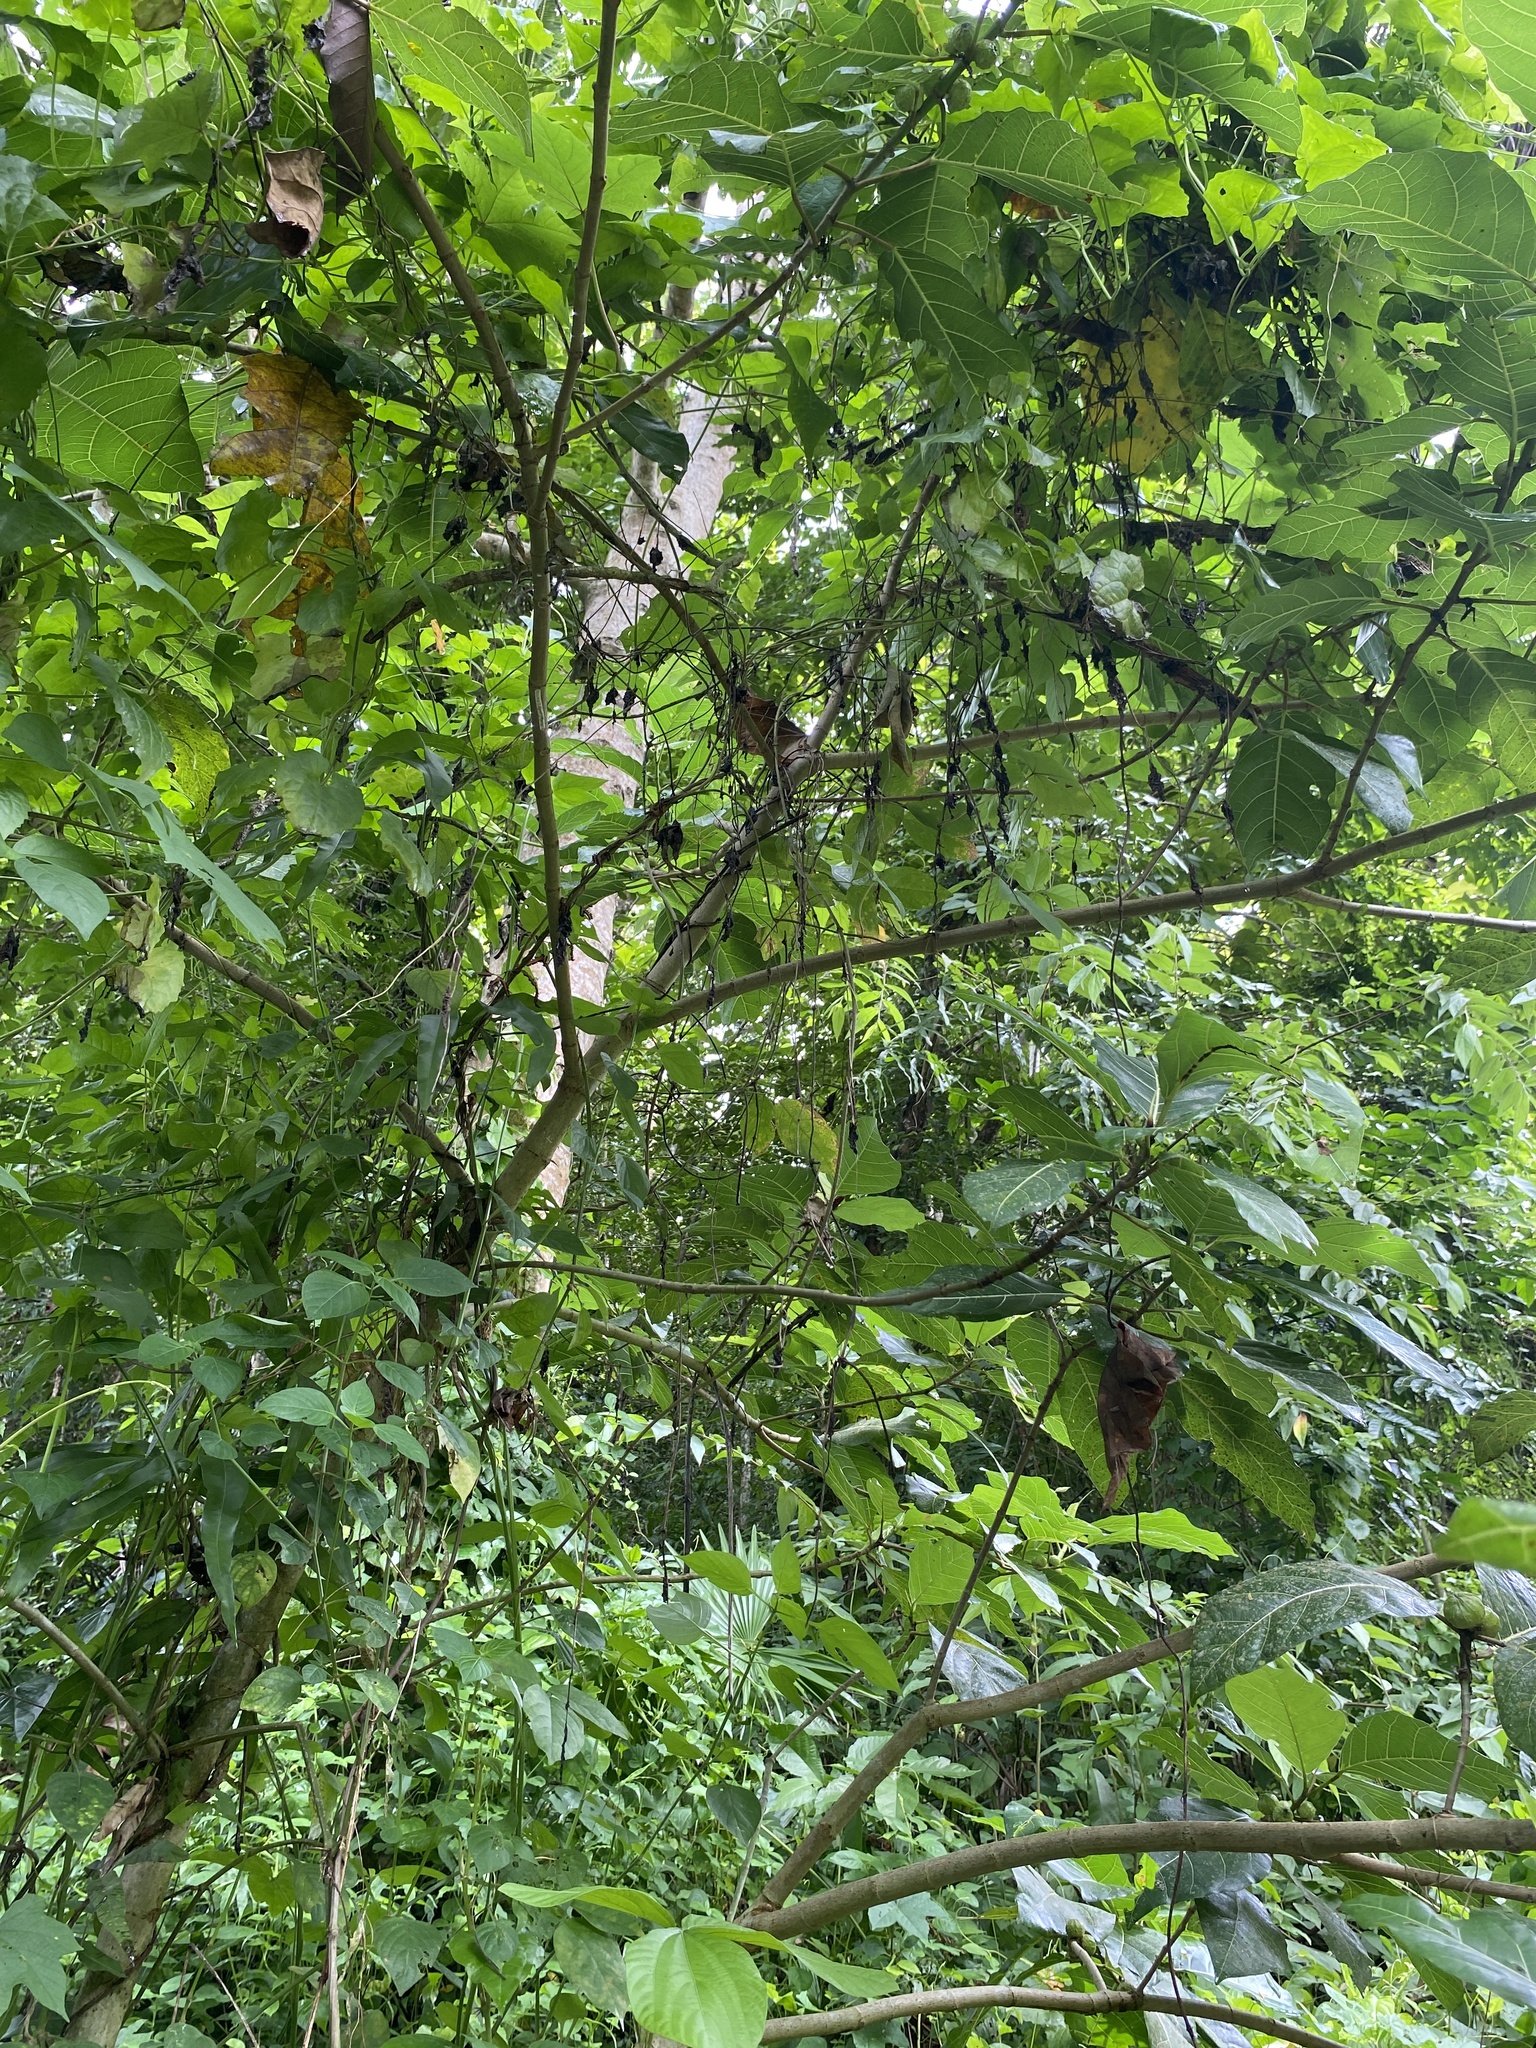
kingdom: Plantae
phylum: Tracheophyta
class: Magnoliopsida
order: Rosales
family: Moraceae
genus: Ficus
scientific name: Ficus septica
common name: Septic fig
